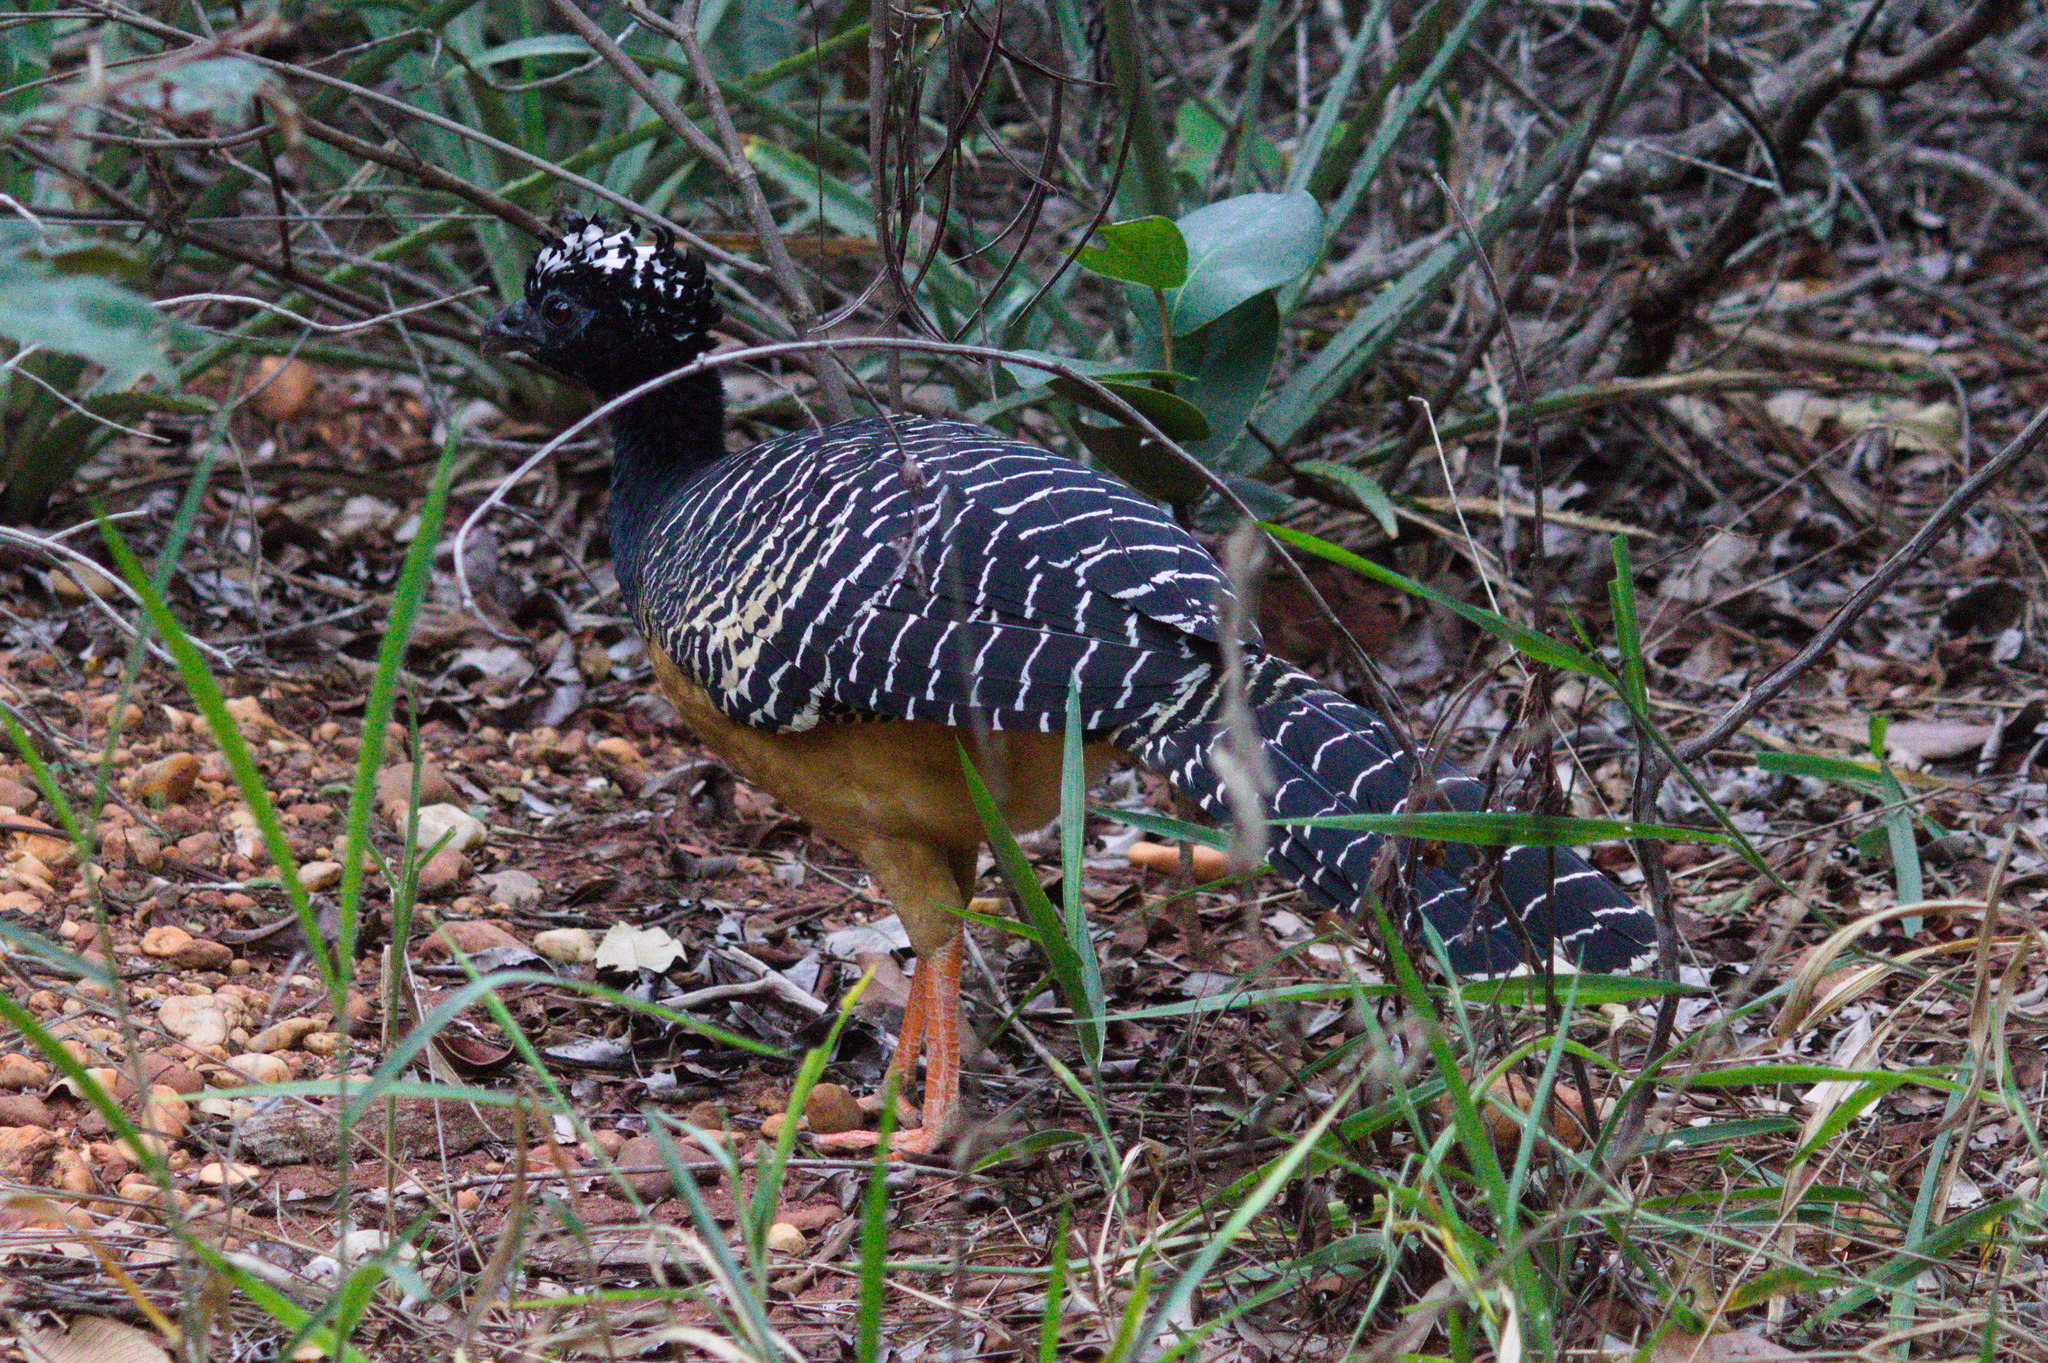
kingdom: Animalia
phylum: Chordata
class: Aves
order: Galliformes
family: Cracidae
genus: Crax
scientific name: Crax fasciolata
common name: Bare-faced curassow
